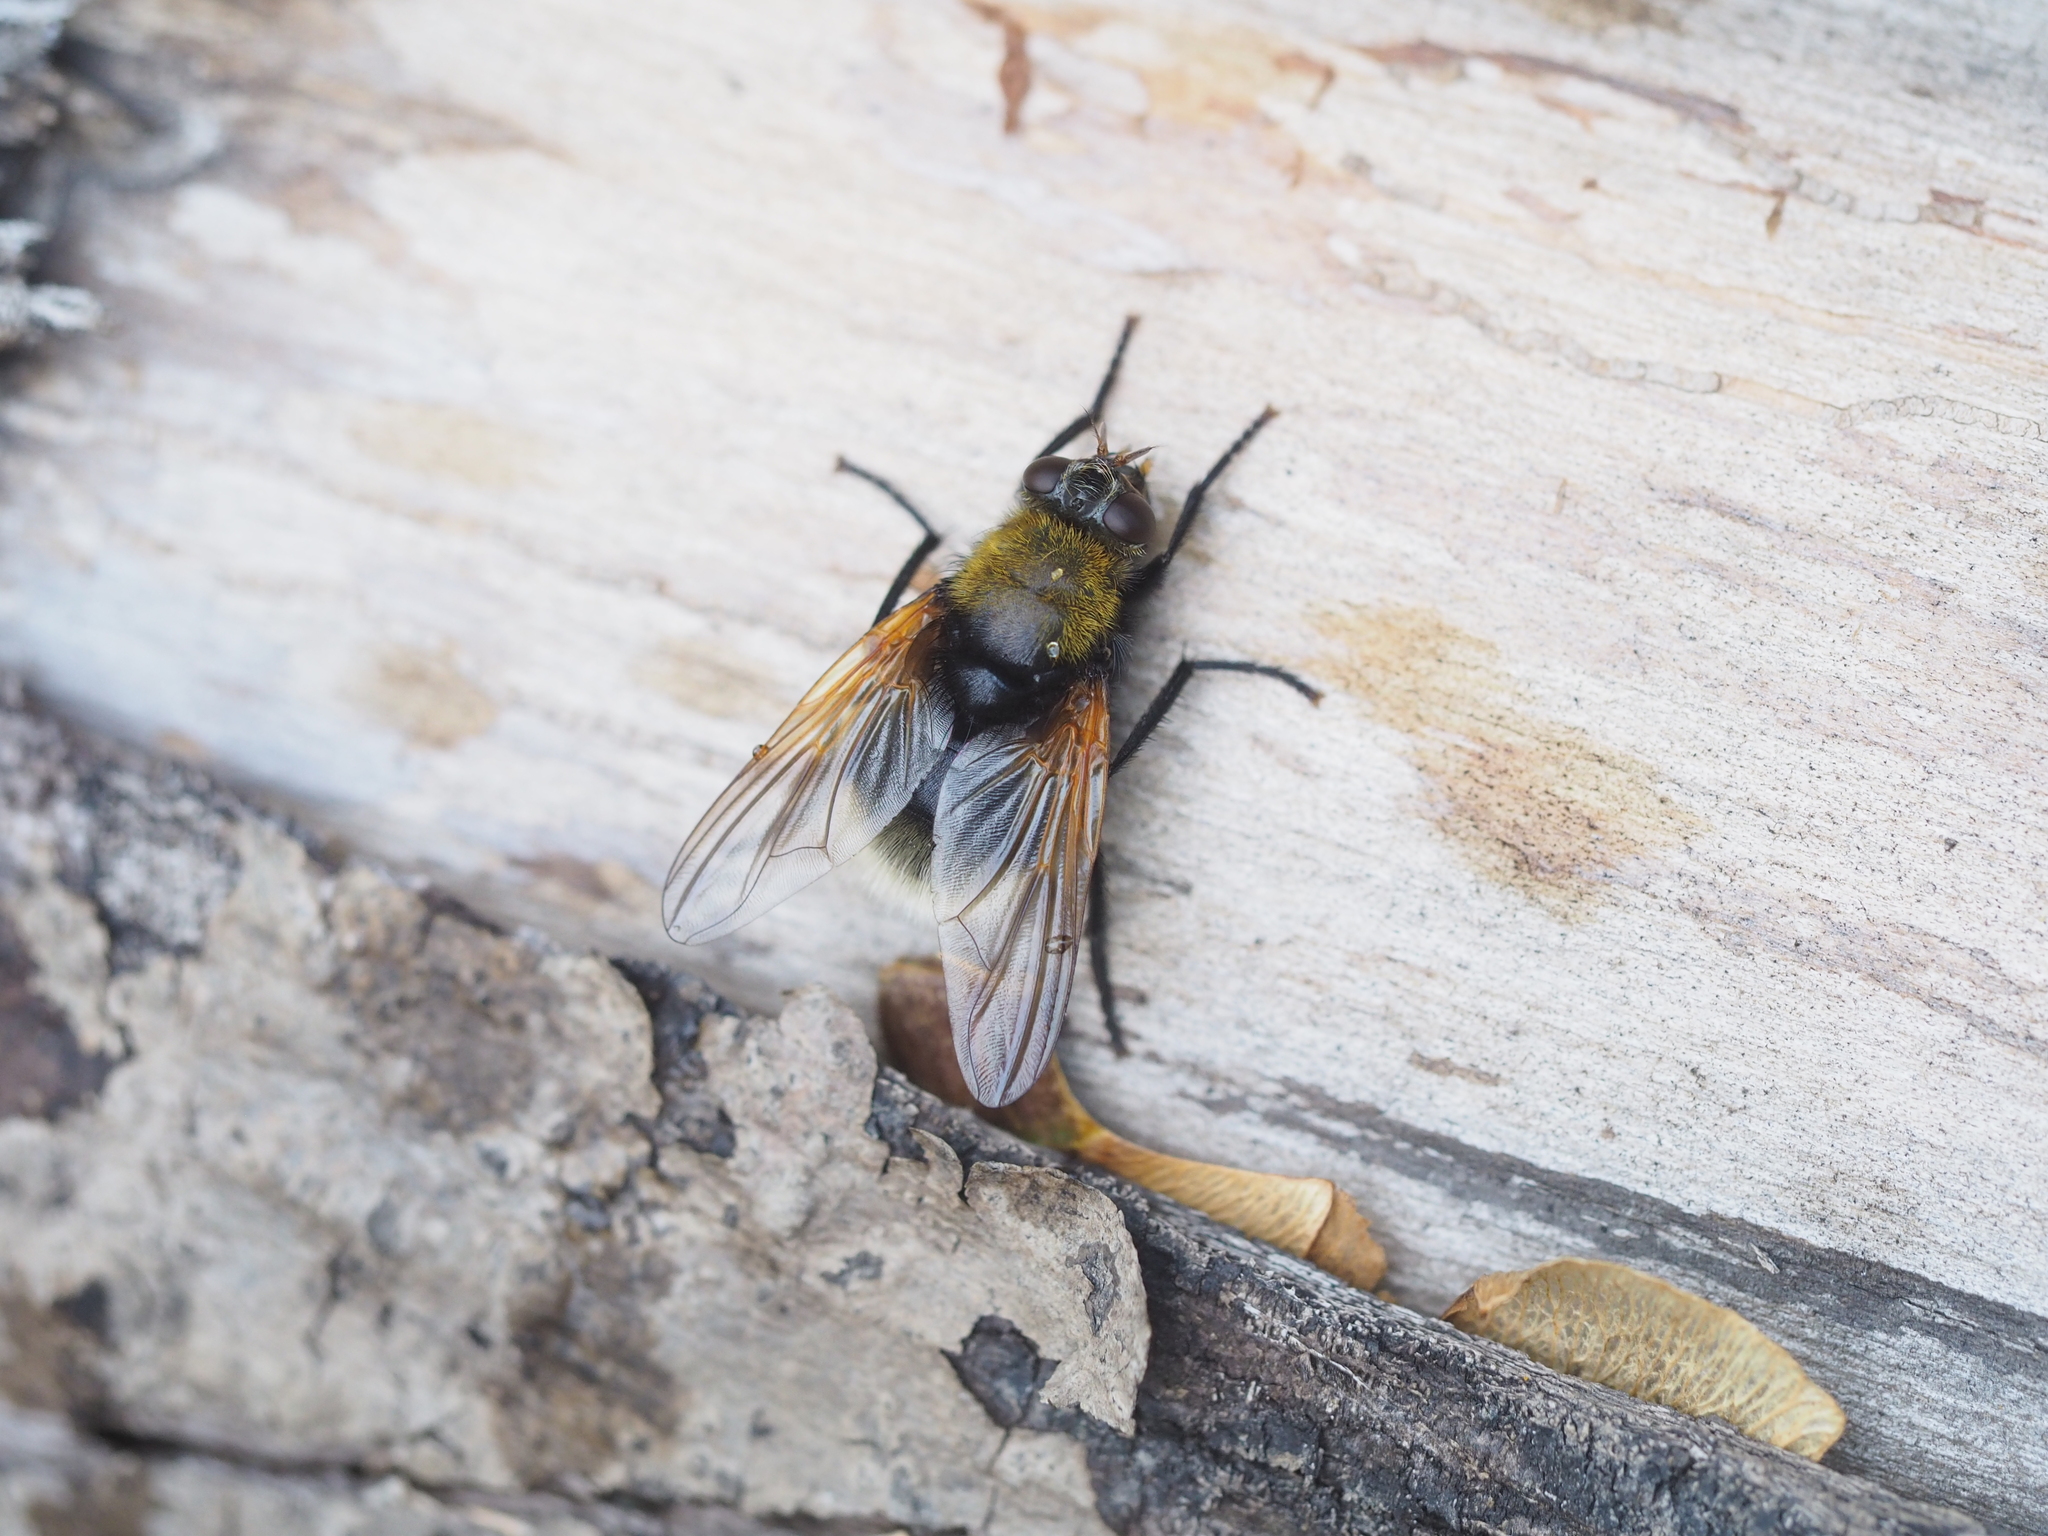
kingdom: Animalia
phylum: Arthropoda
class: Insecta
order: Diptera
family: Muscidae
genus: Mesembrina
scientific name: Mesembrina mystacea
